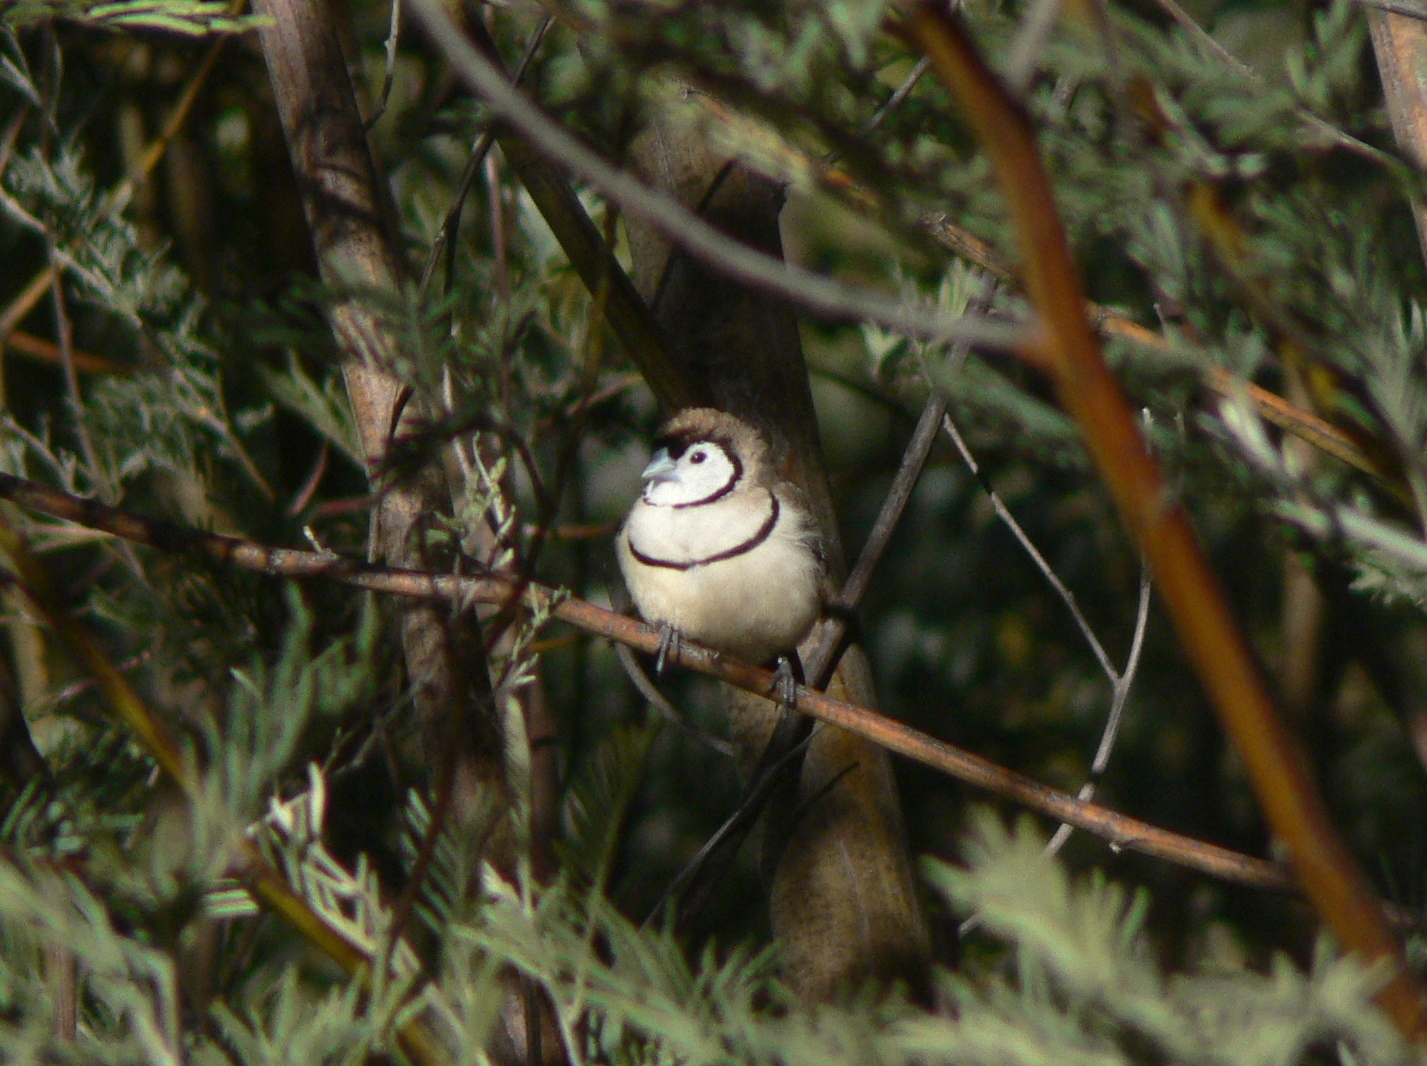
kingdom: Animalia
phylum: Chordata
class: Aves
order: Passeriformes
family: Estrildidae
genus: Taeniopygia
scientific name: Taeniopygia bichenovii
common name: Double-barred finch
